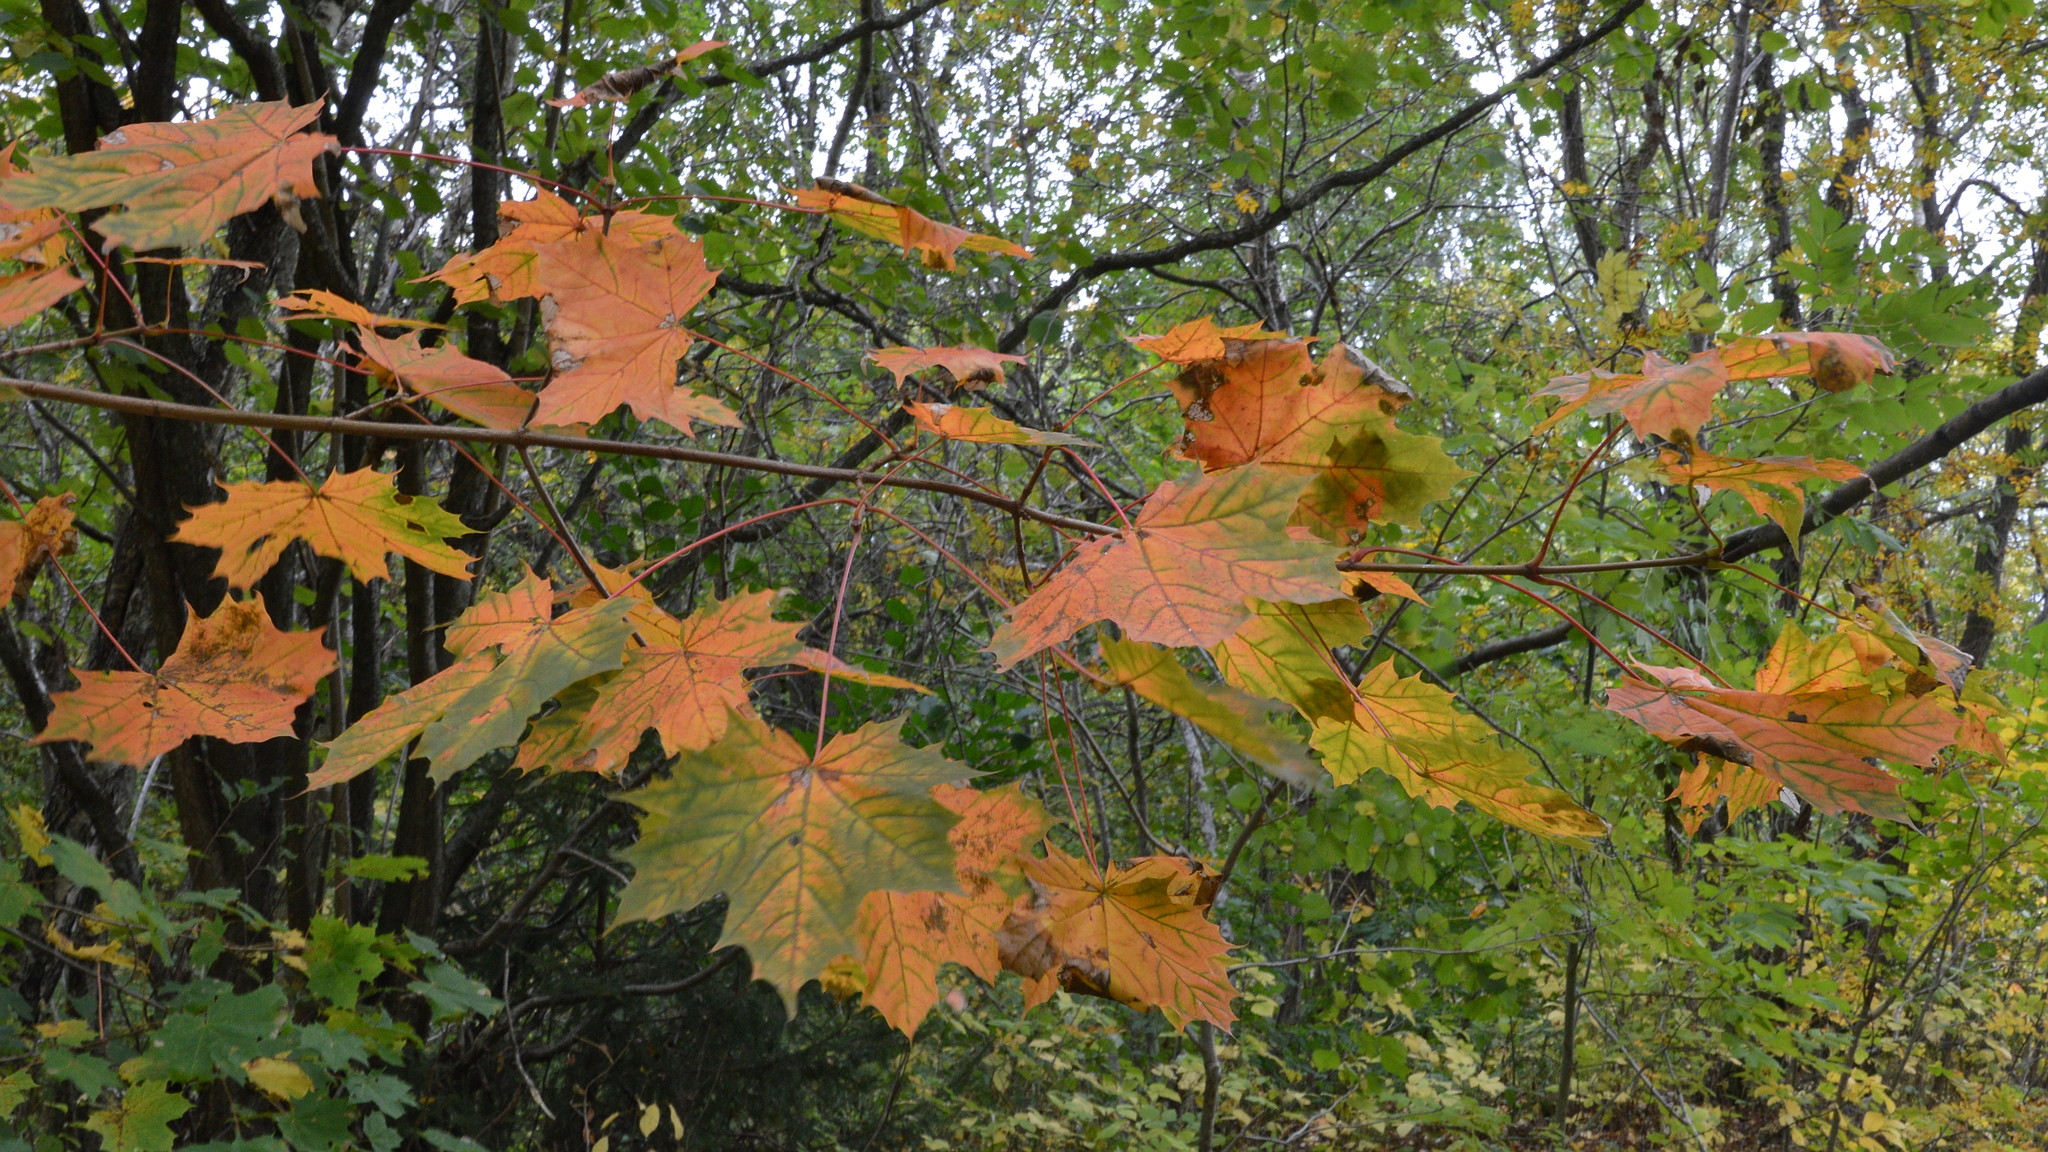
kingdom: Plantae
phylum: Tracheophyta
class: Magnoliopsida
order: Sapindales
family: Sapindaceae
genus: Acer
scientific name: Acer platanoides
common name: Norway maple
